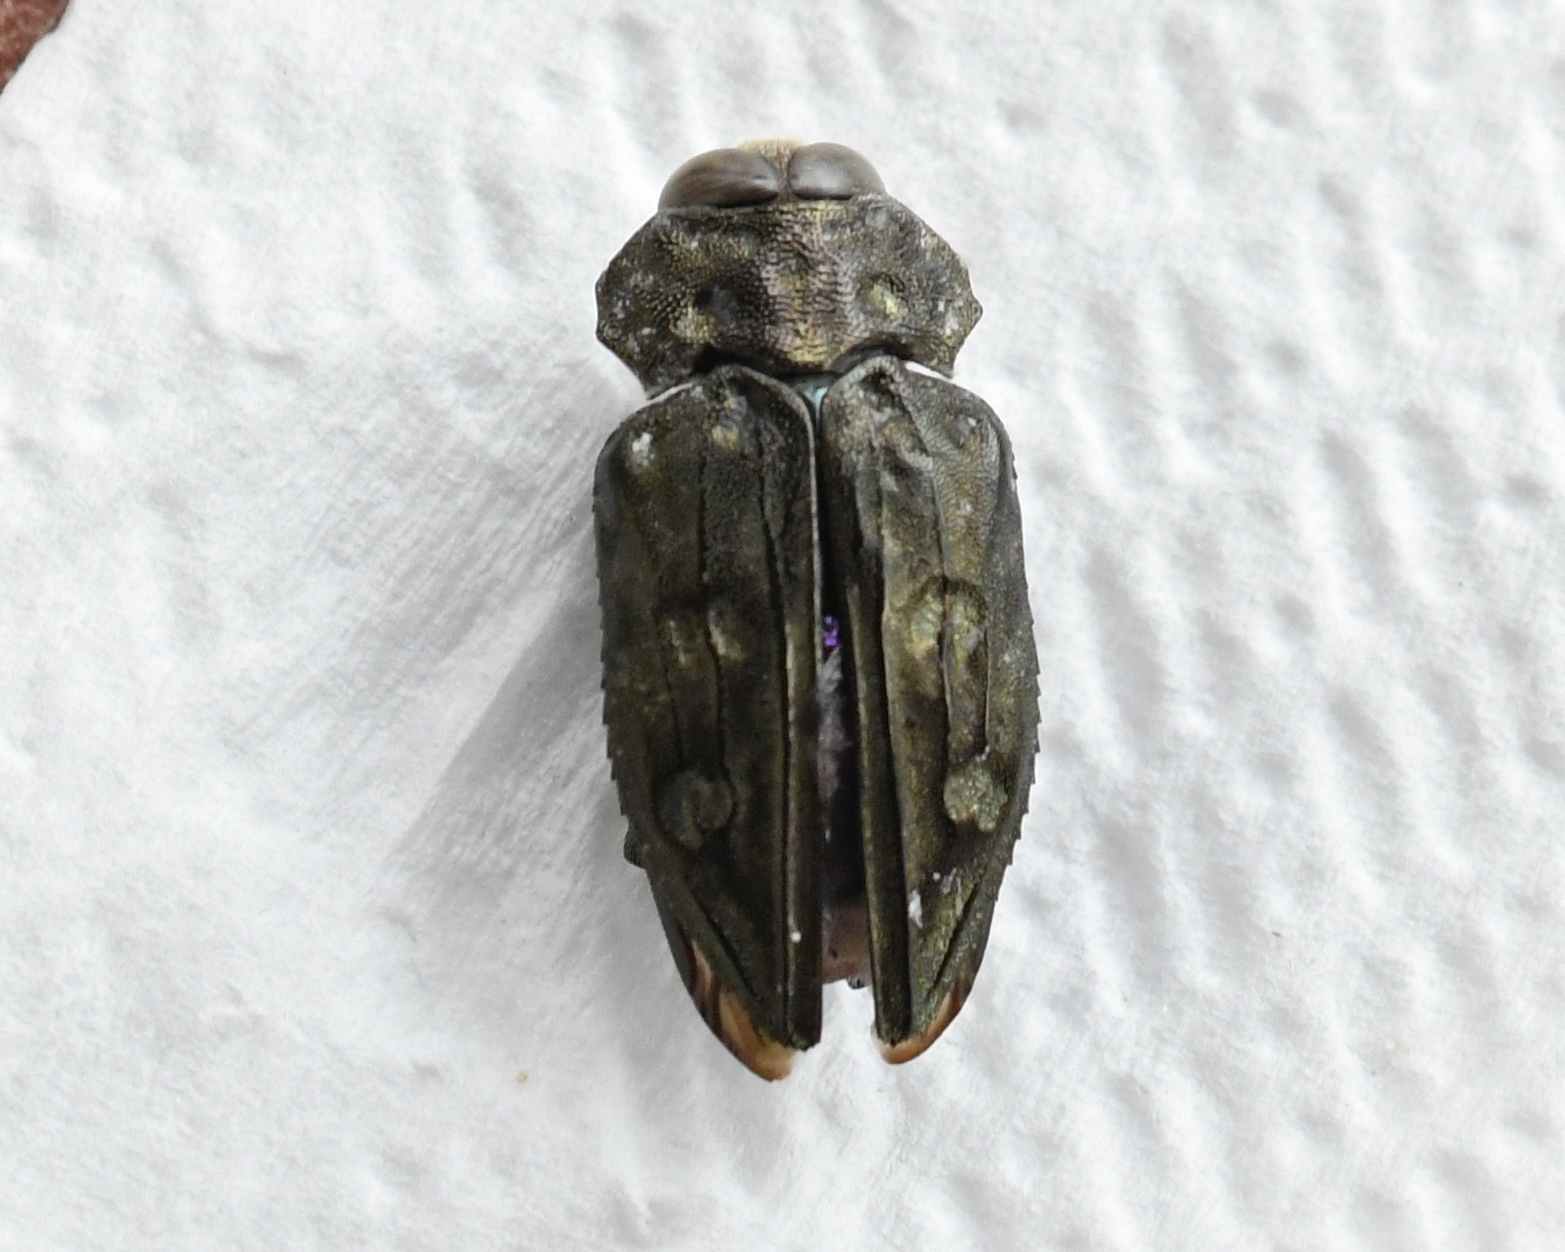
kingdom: Animalia
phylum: Arthropoda
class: Insecta
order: Coleoptera
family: Buprestidae
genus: Chrysobothris
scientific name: Chrysobothris tranquebarica
